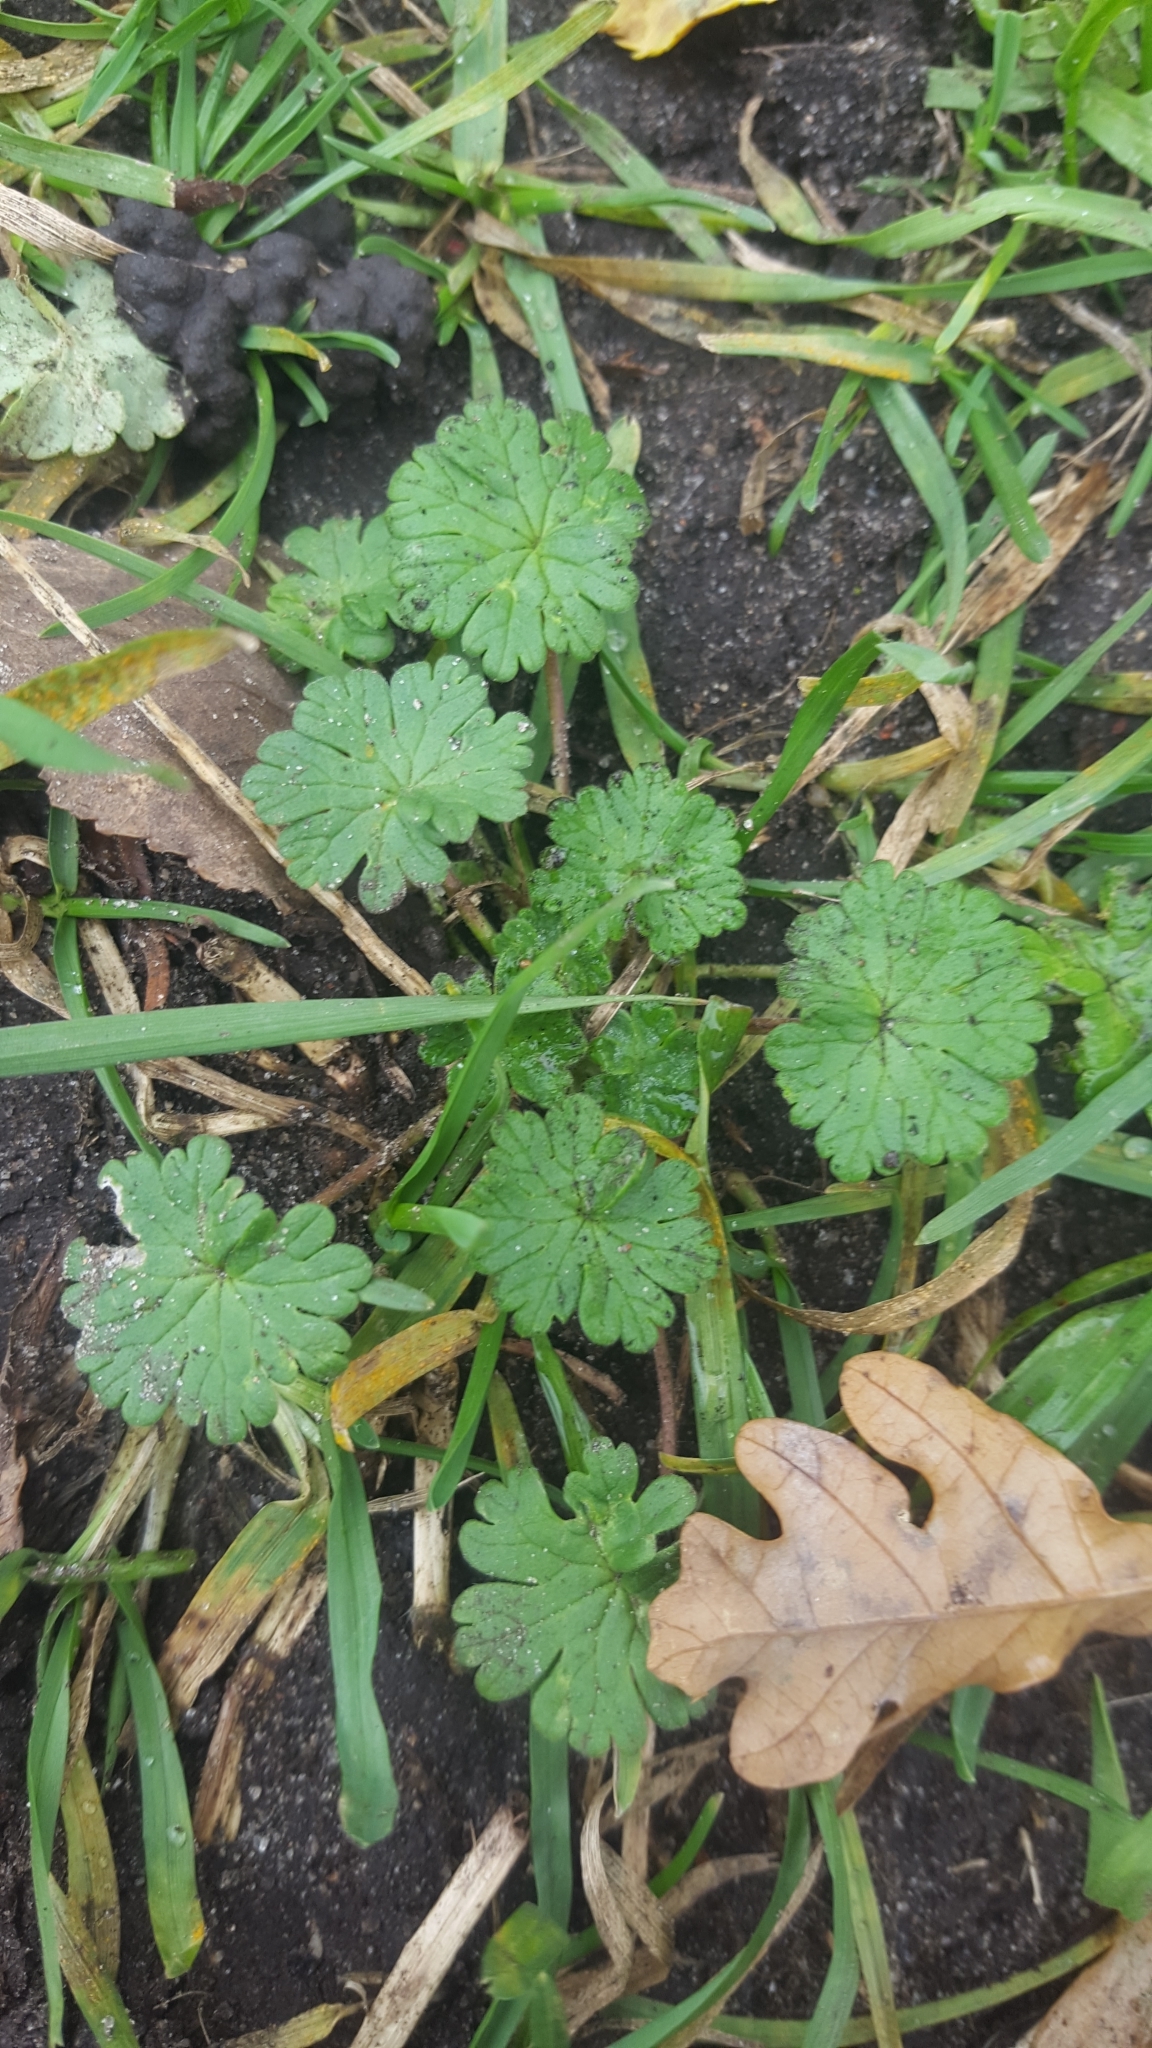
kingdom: Plantae
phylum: Tracheophyta
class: Magnoliopsida
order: Geraniales
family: Geraniaceae
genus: Geranium
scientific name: Geranium molle
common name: Dove's-foot crane's-bill
